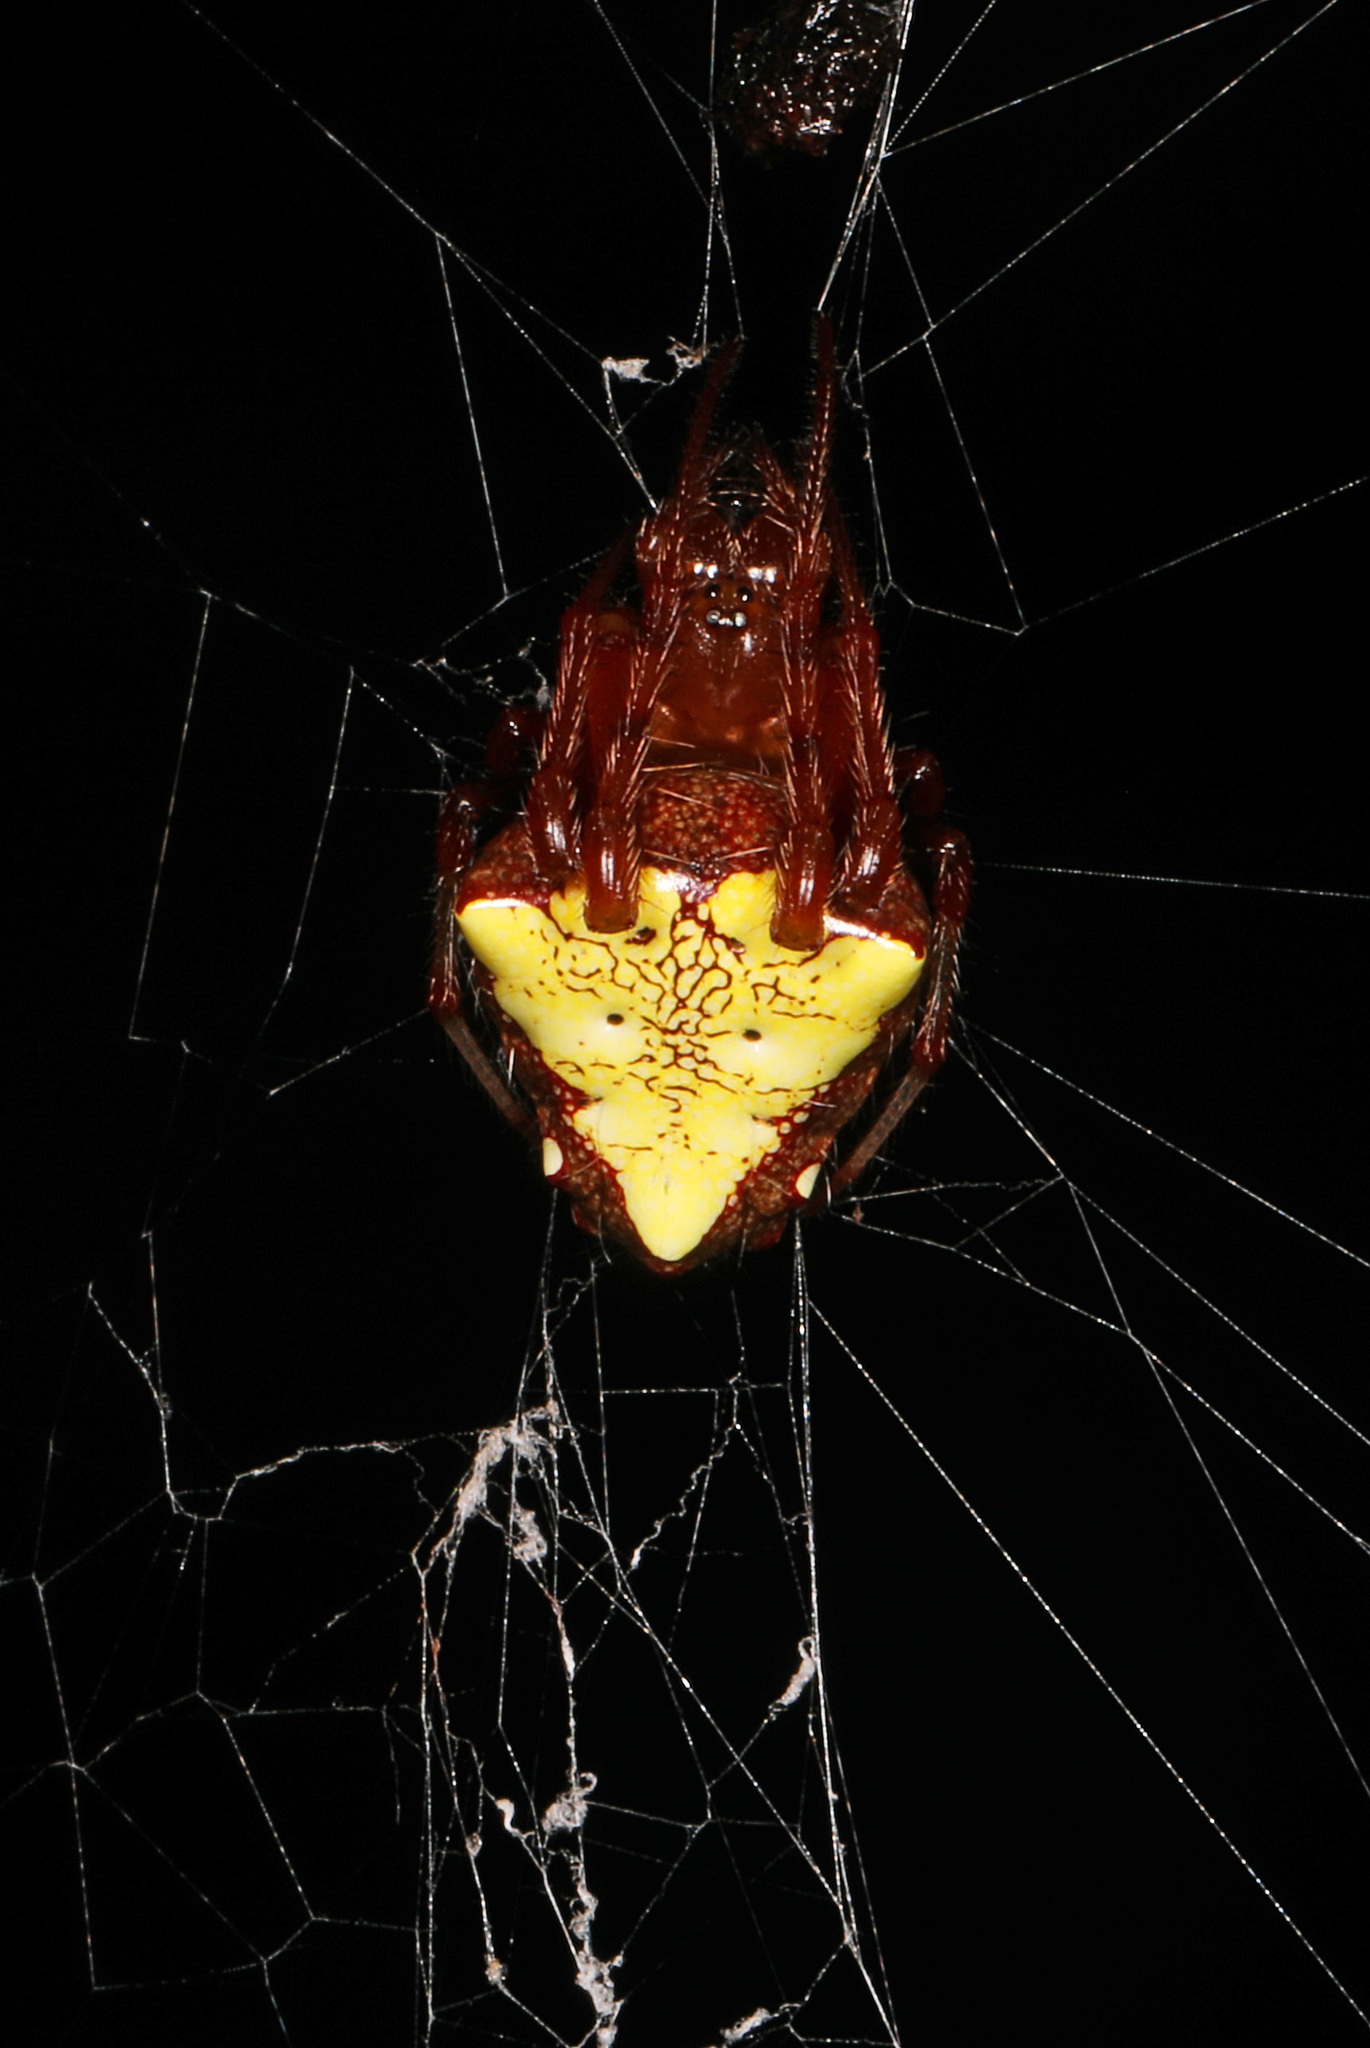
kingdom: Animalia
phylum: Arthropoda
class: Arachnida
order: Araneae
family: Araneidae
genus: Verrucosa
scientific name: Verrucosa arenata
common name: Orb weavers
